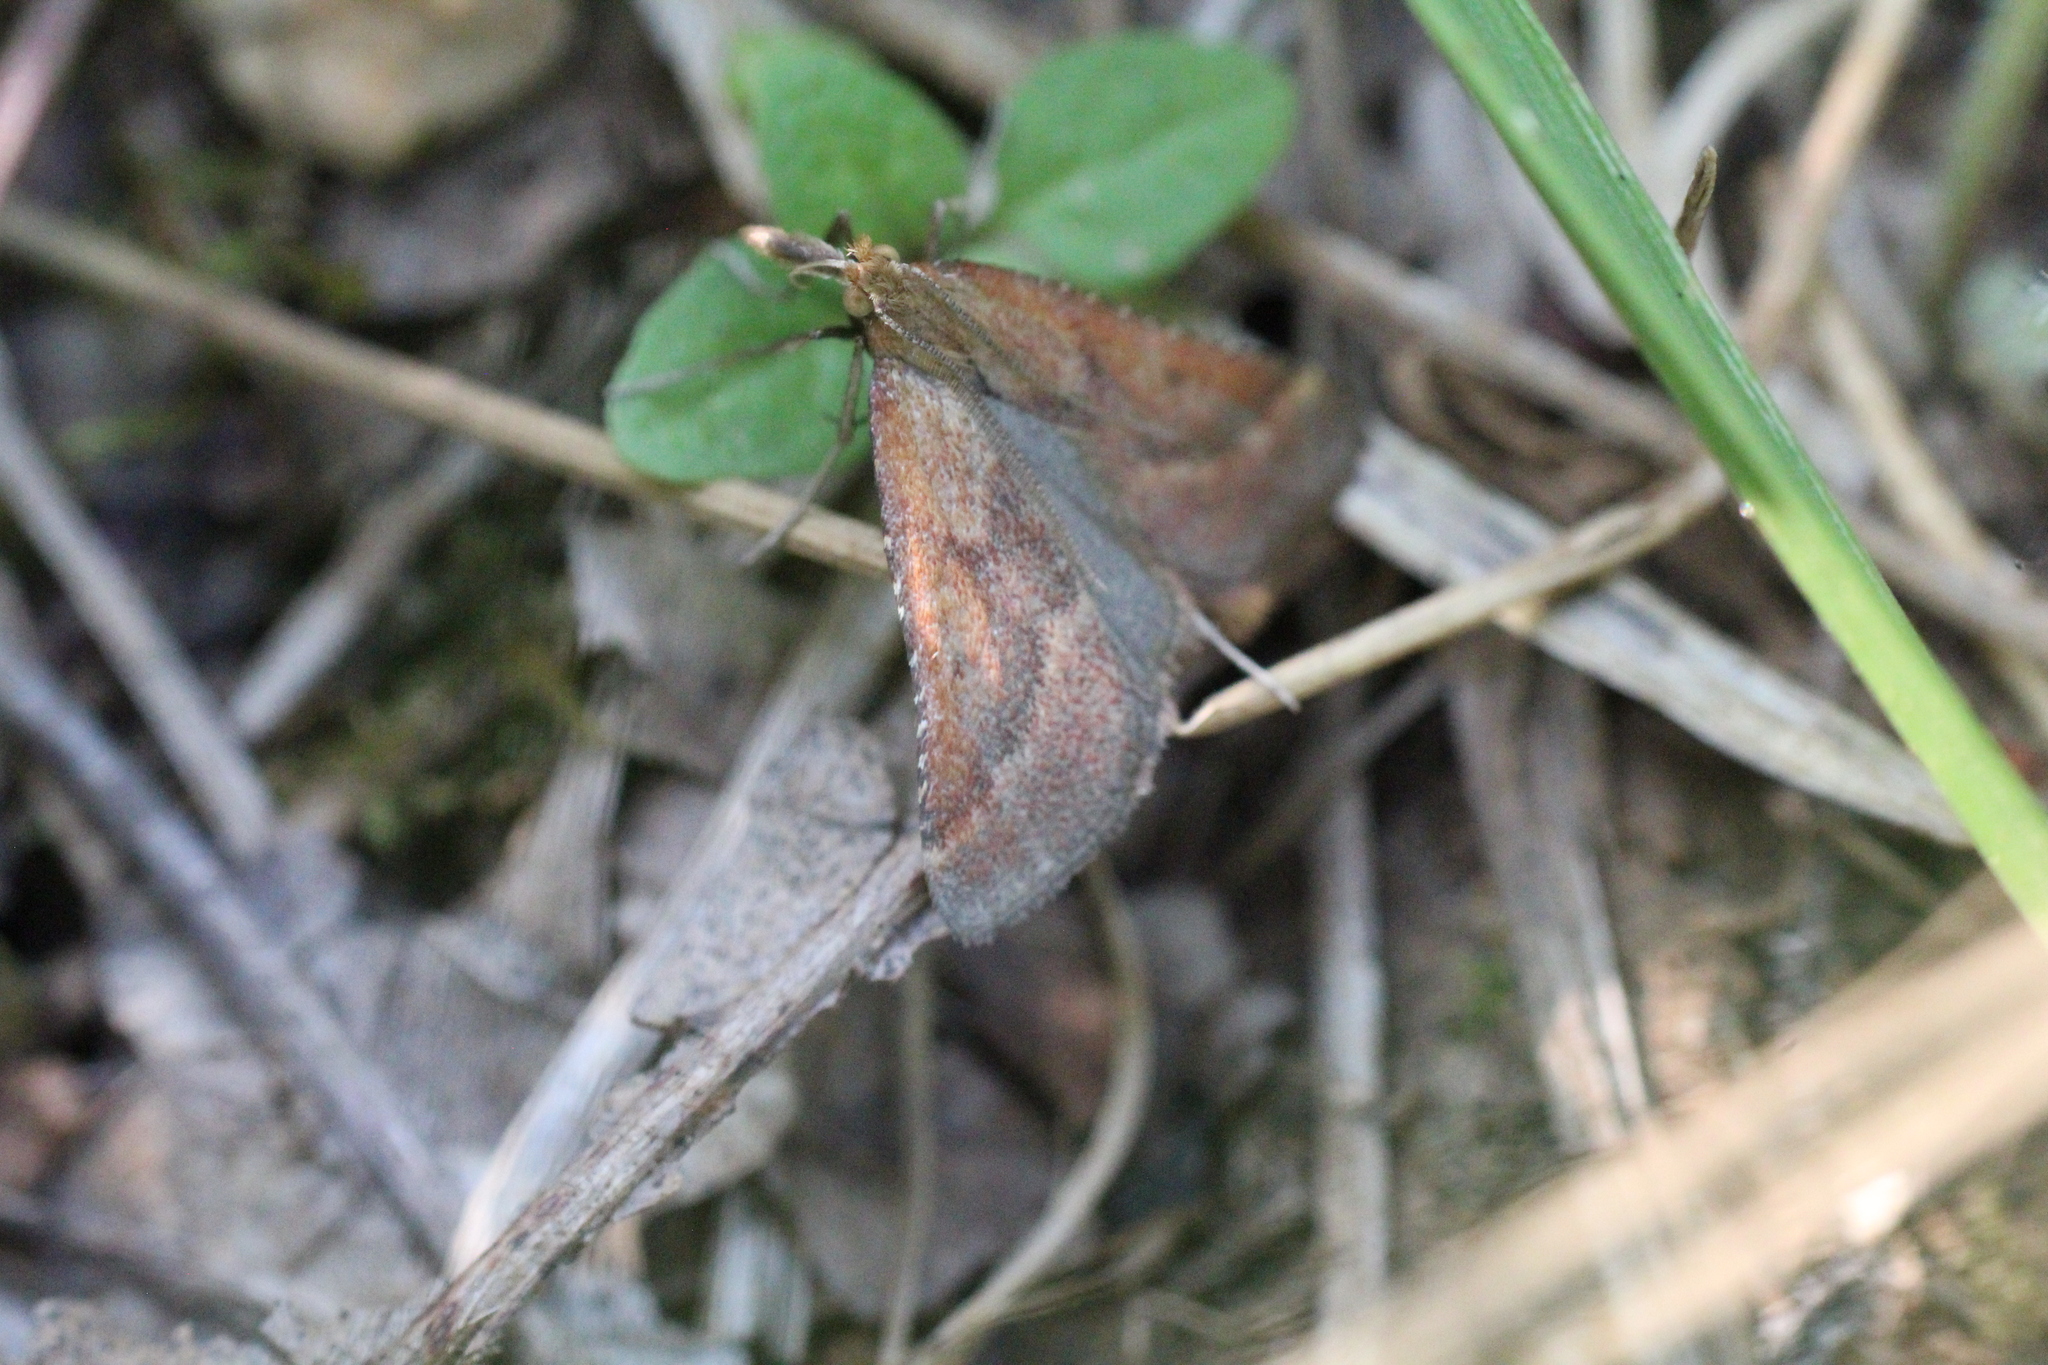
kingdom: Animalia
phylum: Arthropoda
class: Insecta
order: Lepidoptera
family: Pyralidae
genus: Synaphe
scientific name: Synaphe punctalis
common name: Long-legged tabby
